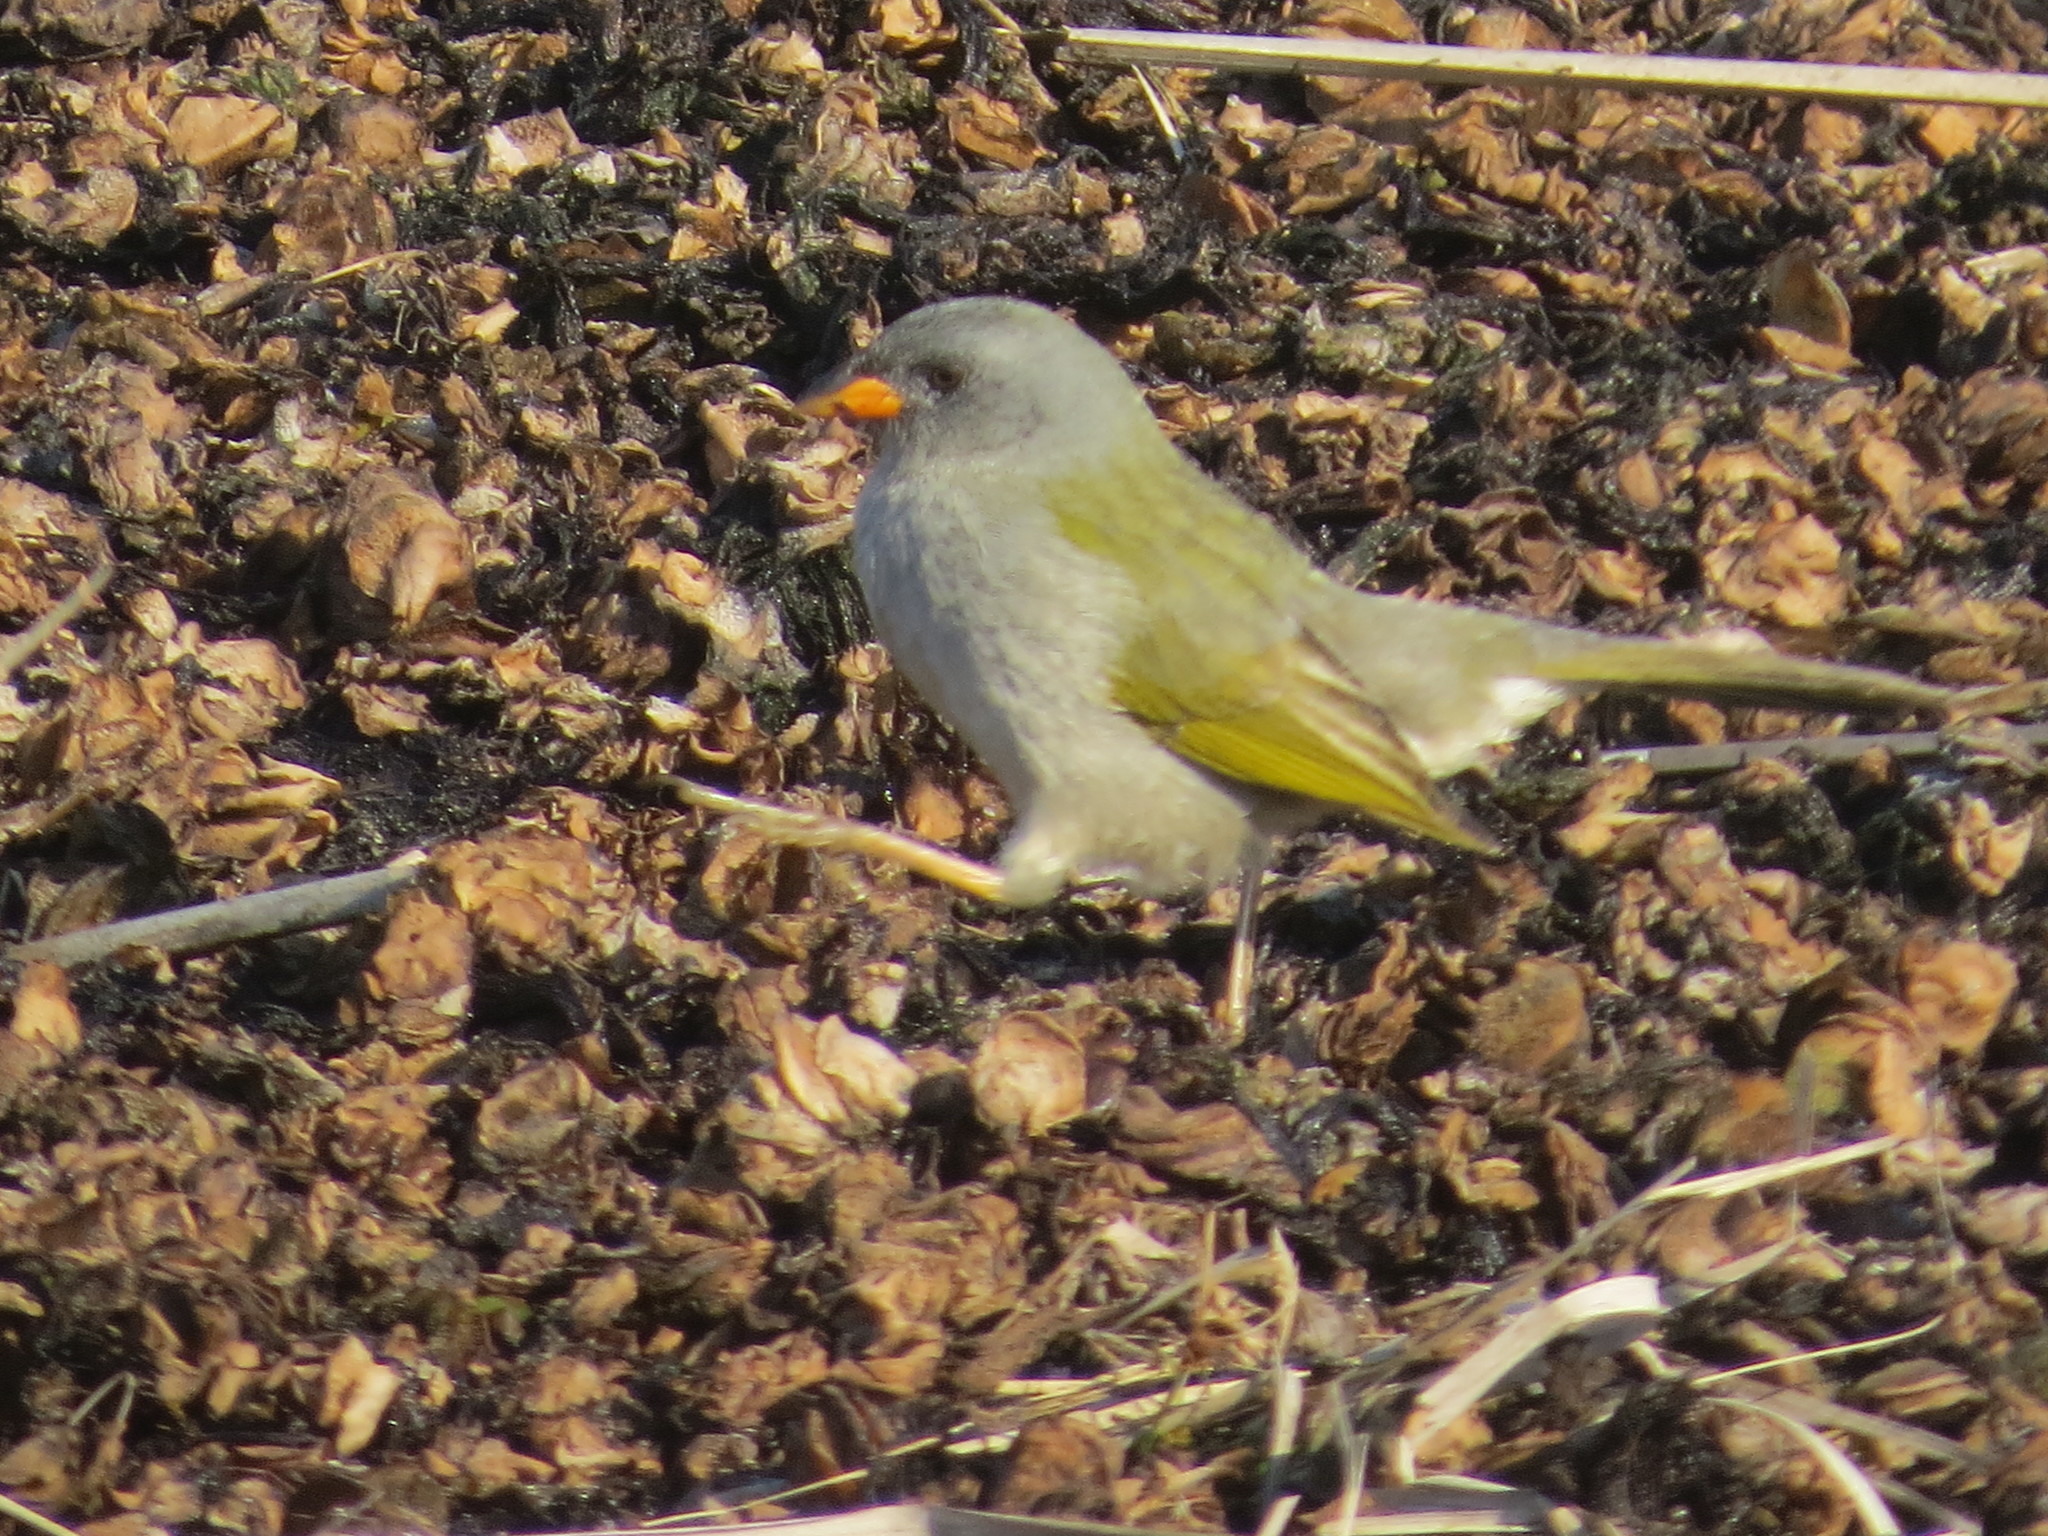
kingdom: Animalia
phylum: Chordata
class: Aves
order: Passeriformes
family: Thraupidae
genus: Embernagra
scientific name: Embernagra platensis
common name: Pampa finch
